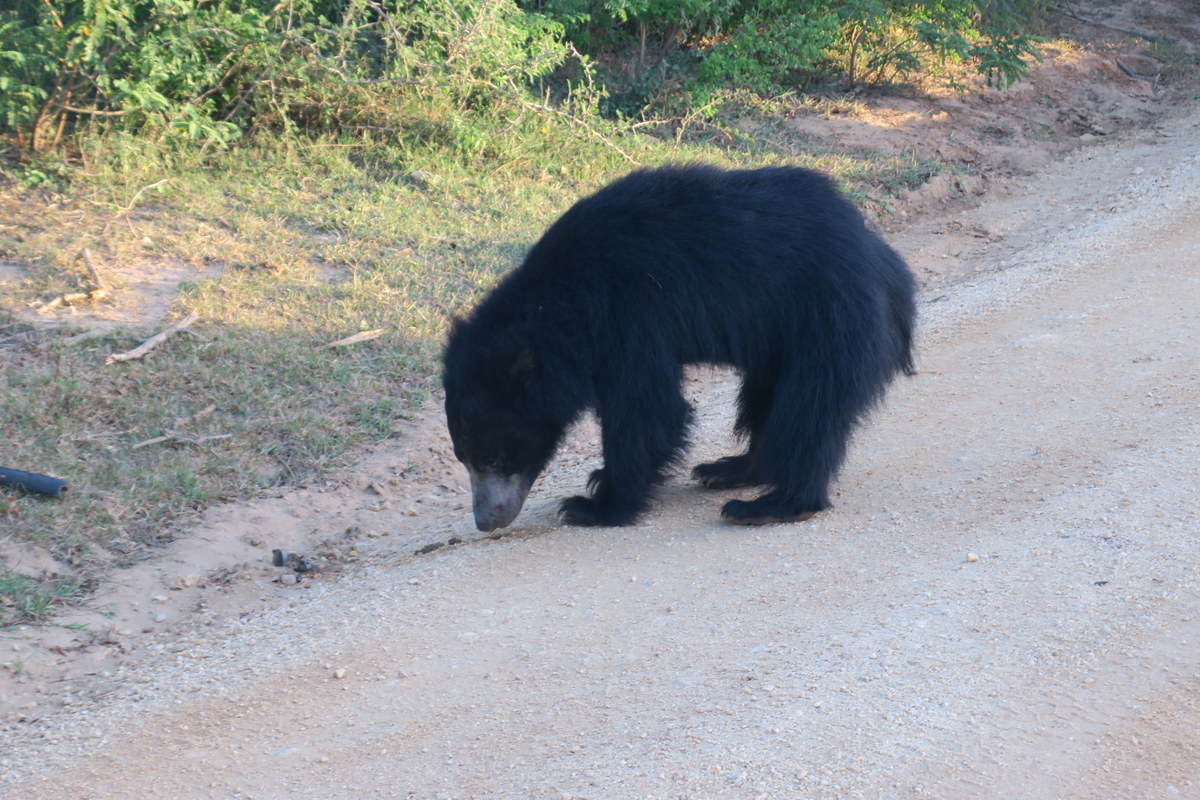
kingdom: Animalia
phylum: Chordata
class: Mammalia
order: Carnivora
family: Ursidae
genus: Melursus
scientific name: Melursus ursinus
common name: Sloth bear
